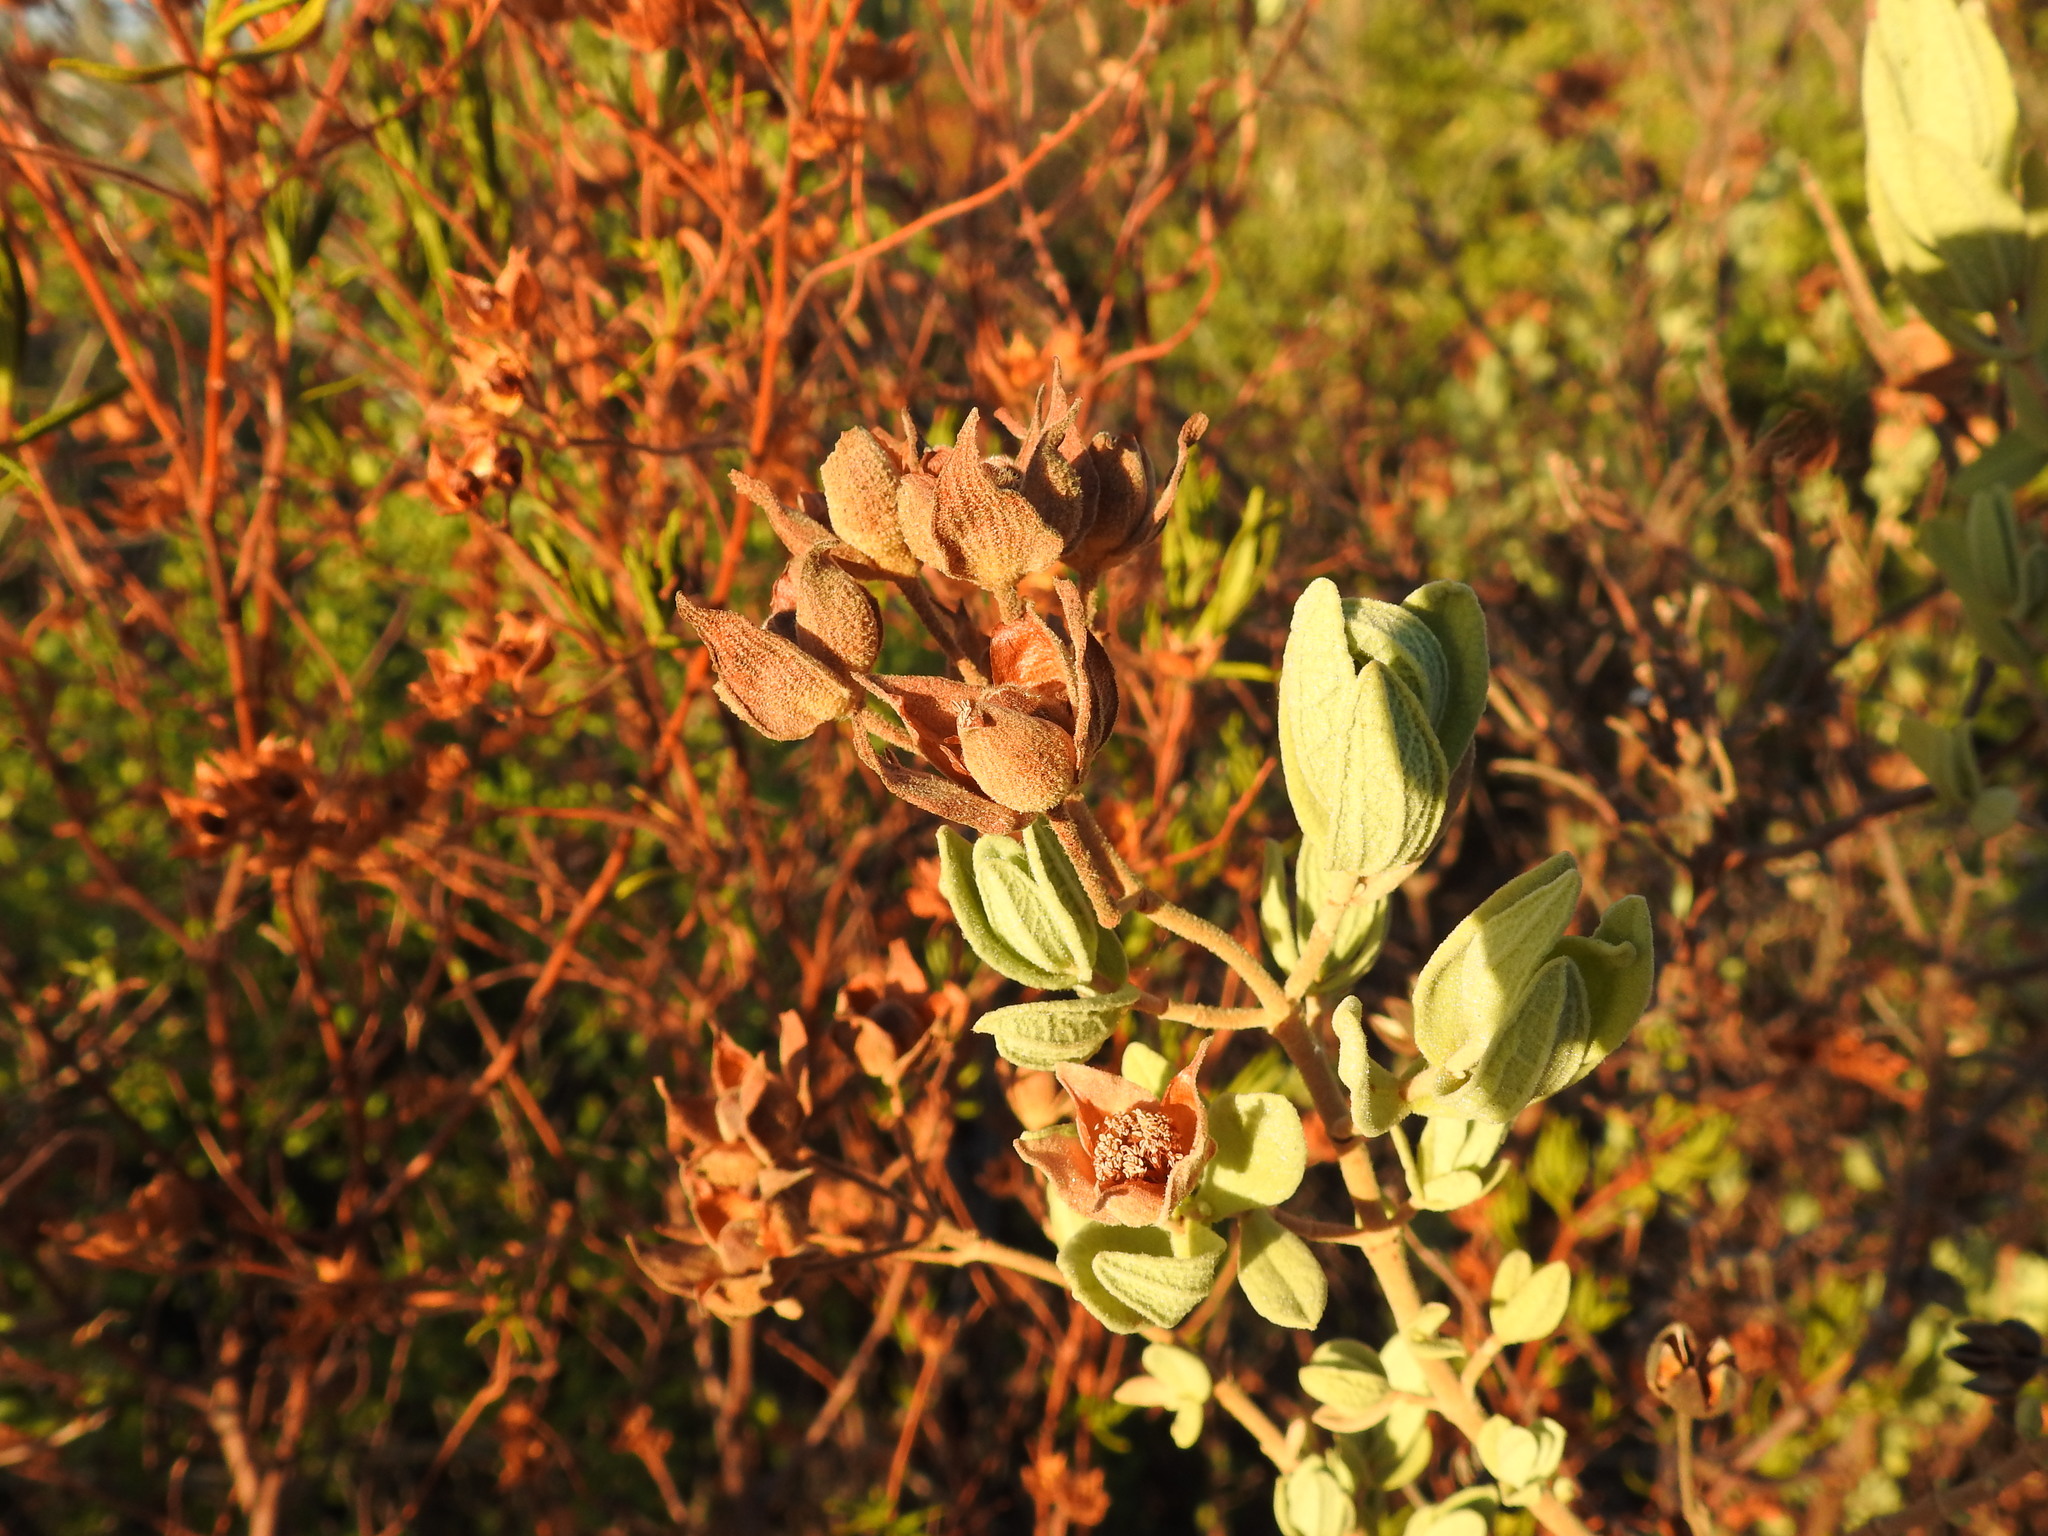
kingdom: Plantae
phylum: Tracheophyta
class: Magnoliopsida
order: Malvales
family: Cistaceae
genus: Cistus
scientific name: Cistus albidus
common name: White-leaf rock-rose
